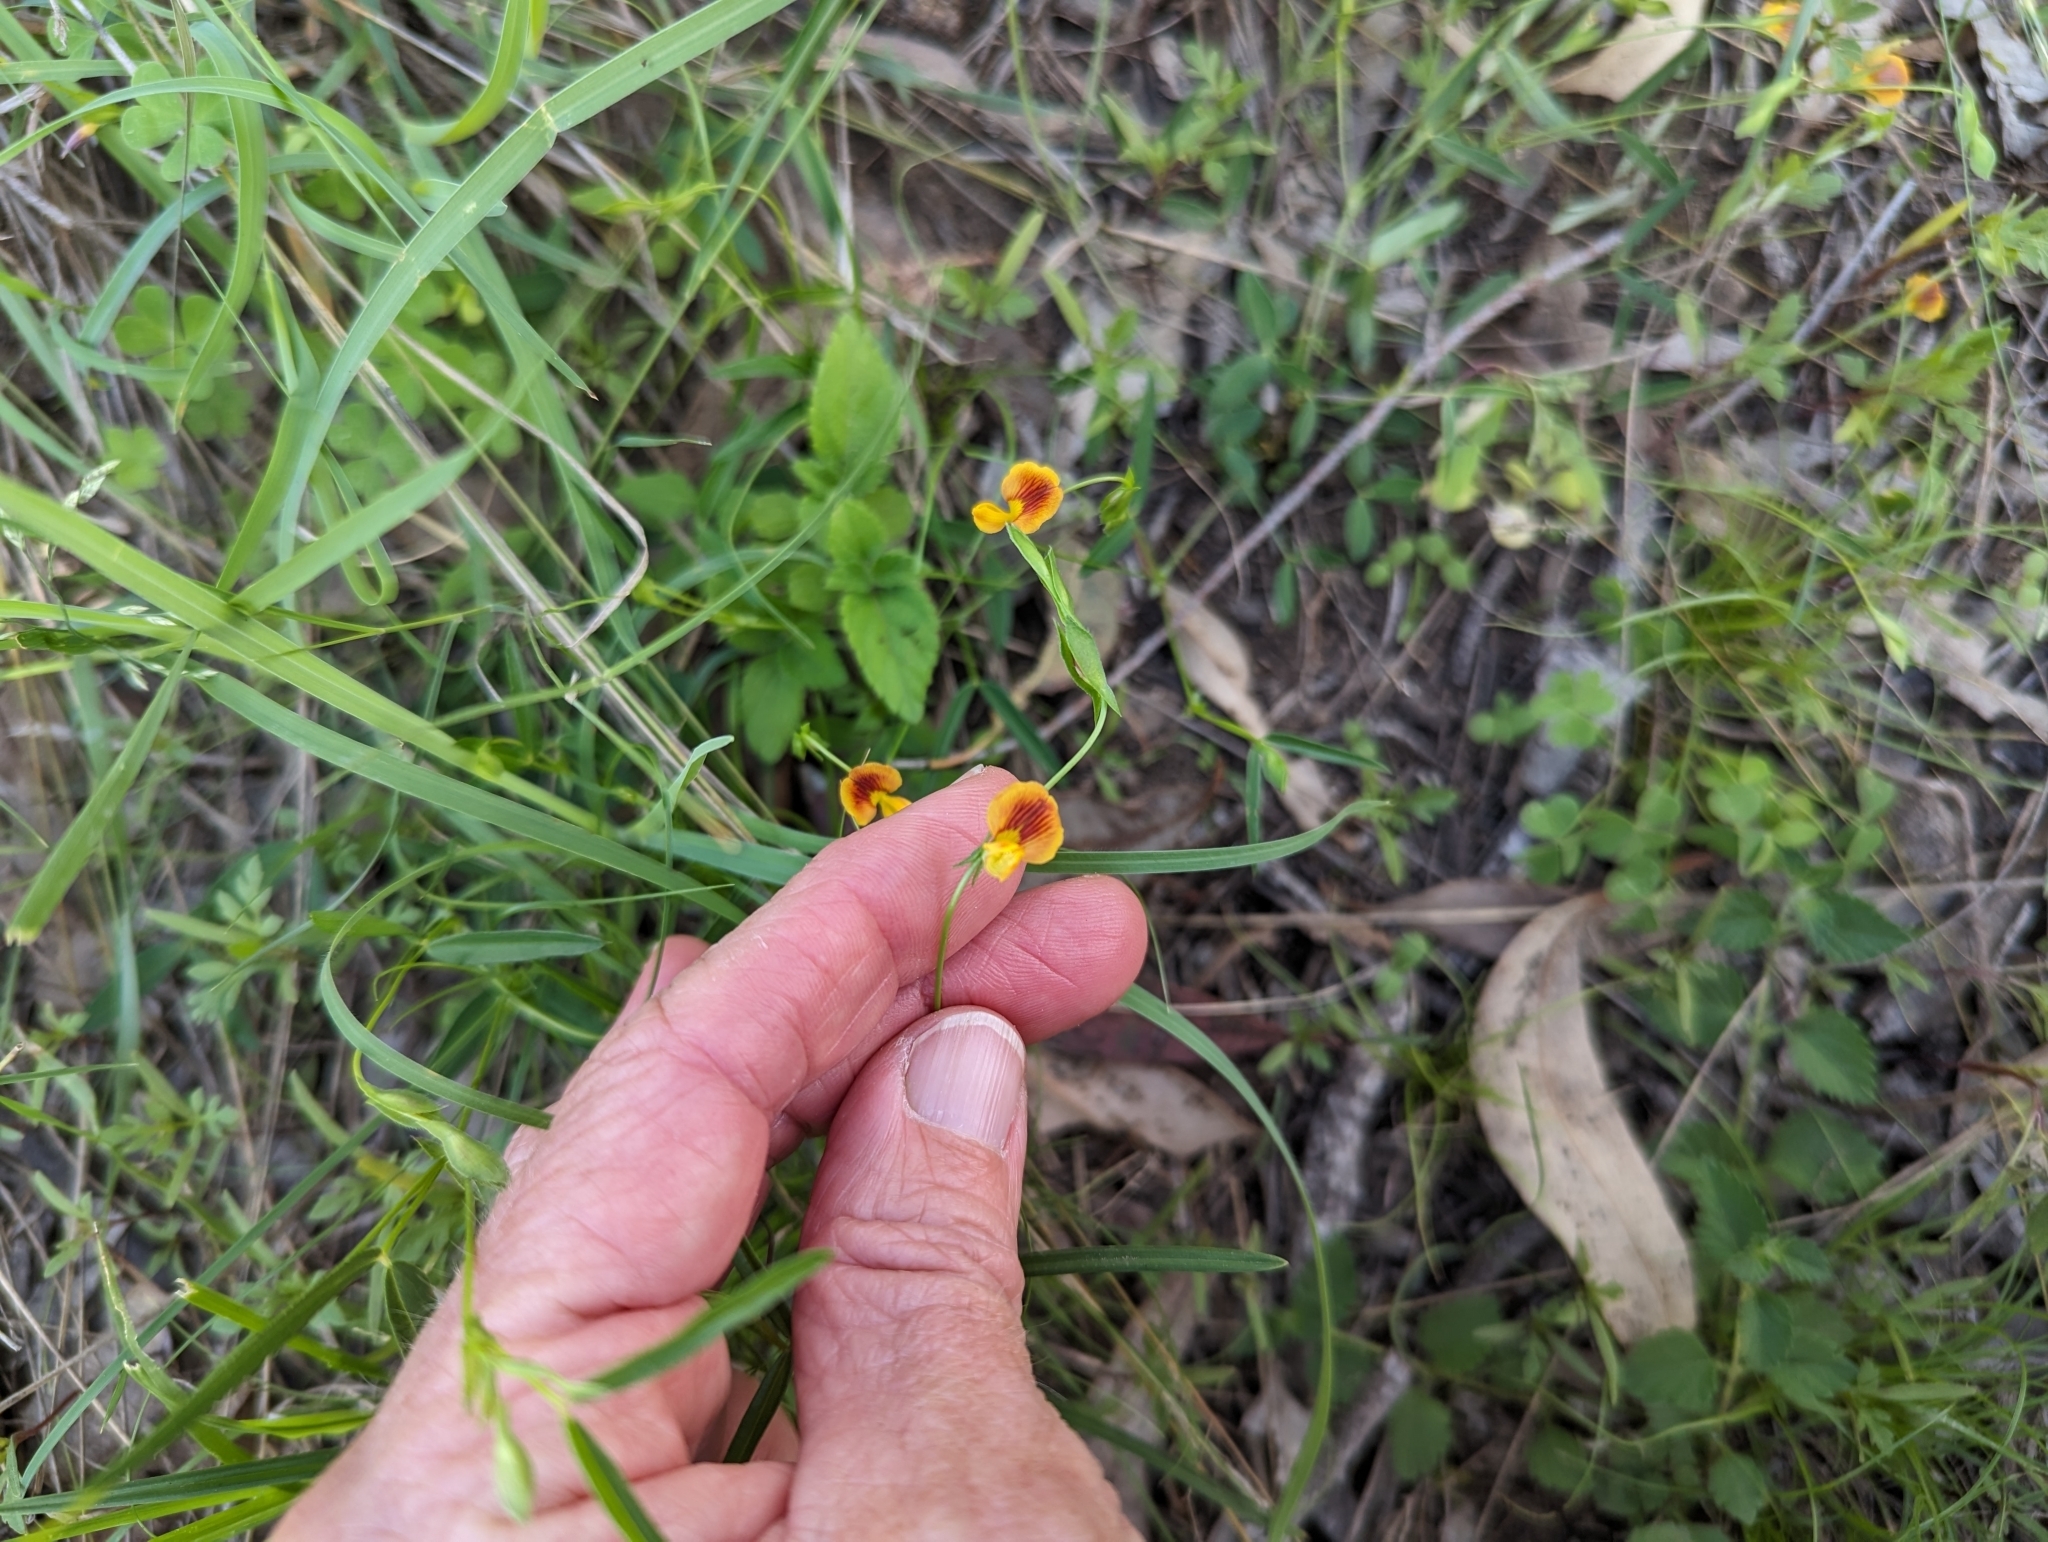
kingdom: Plantae
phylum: Tracheophyta
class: Magnoliopsida
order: Fabales
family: Fabaceae
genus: Zornia
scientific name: Zornia dyctiocarpa
